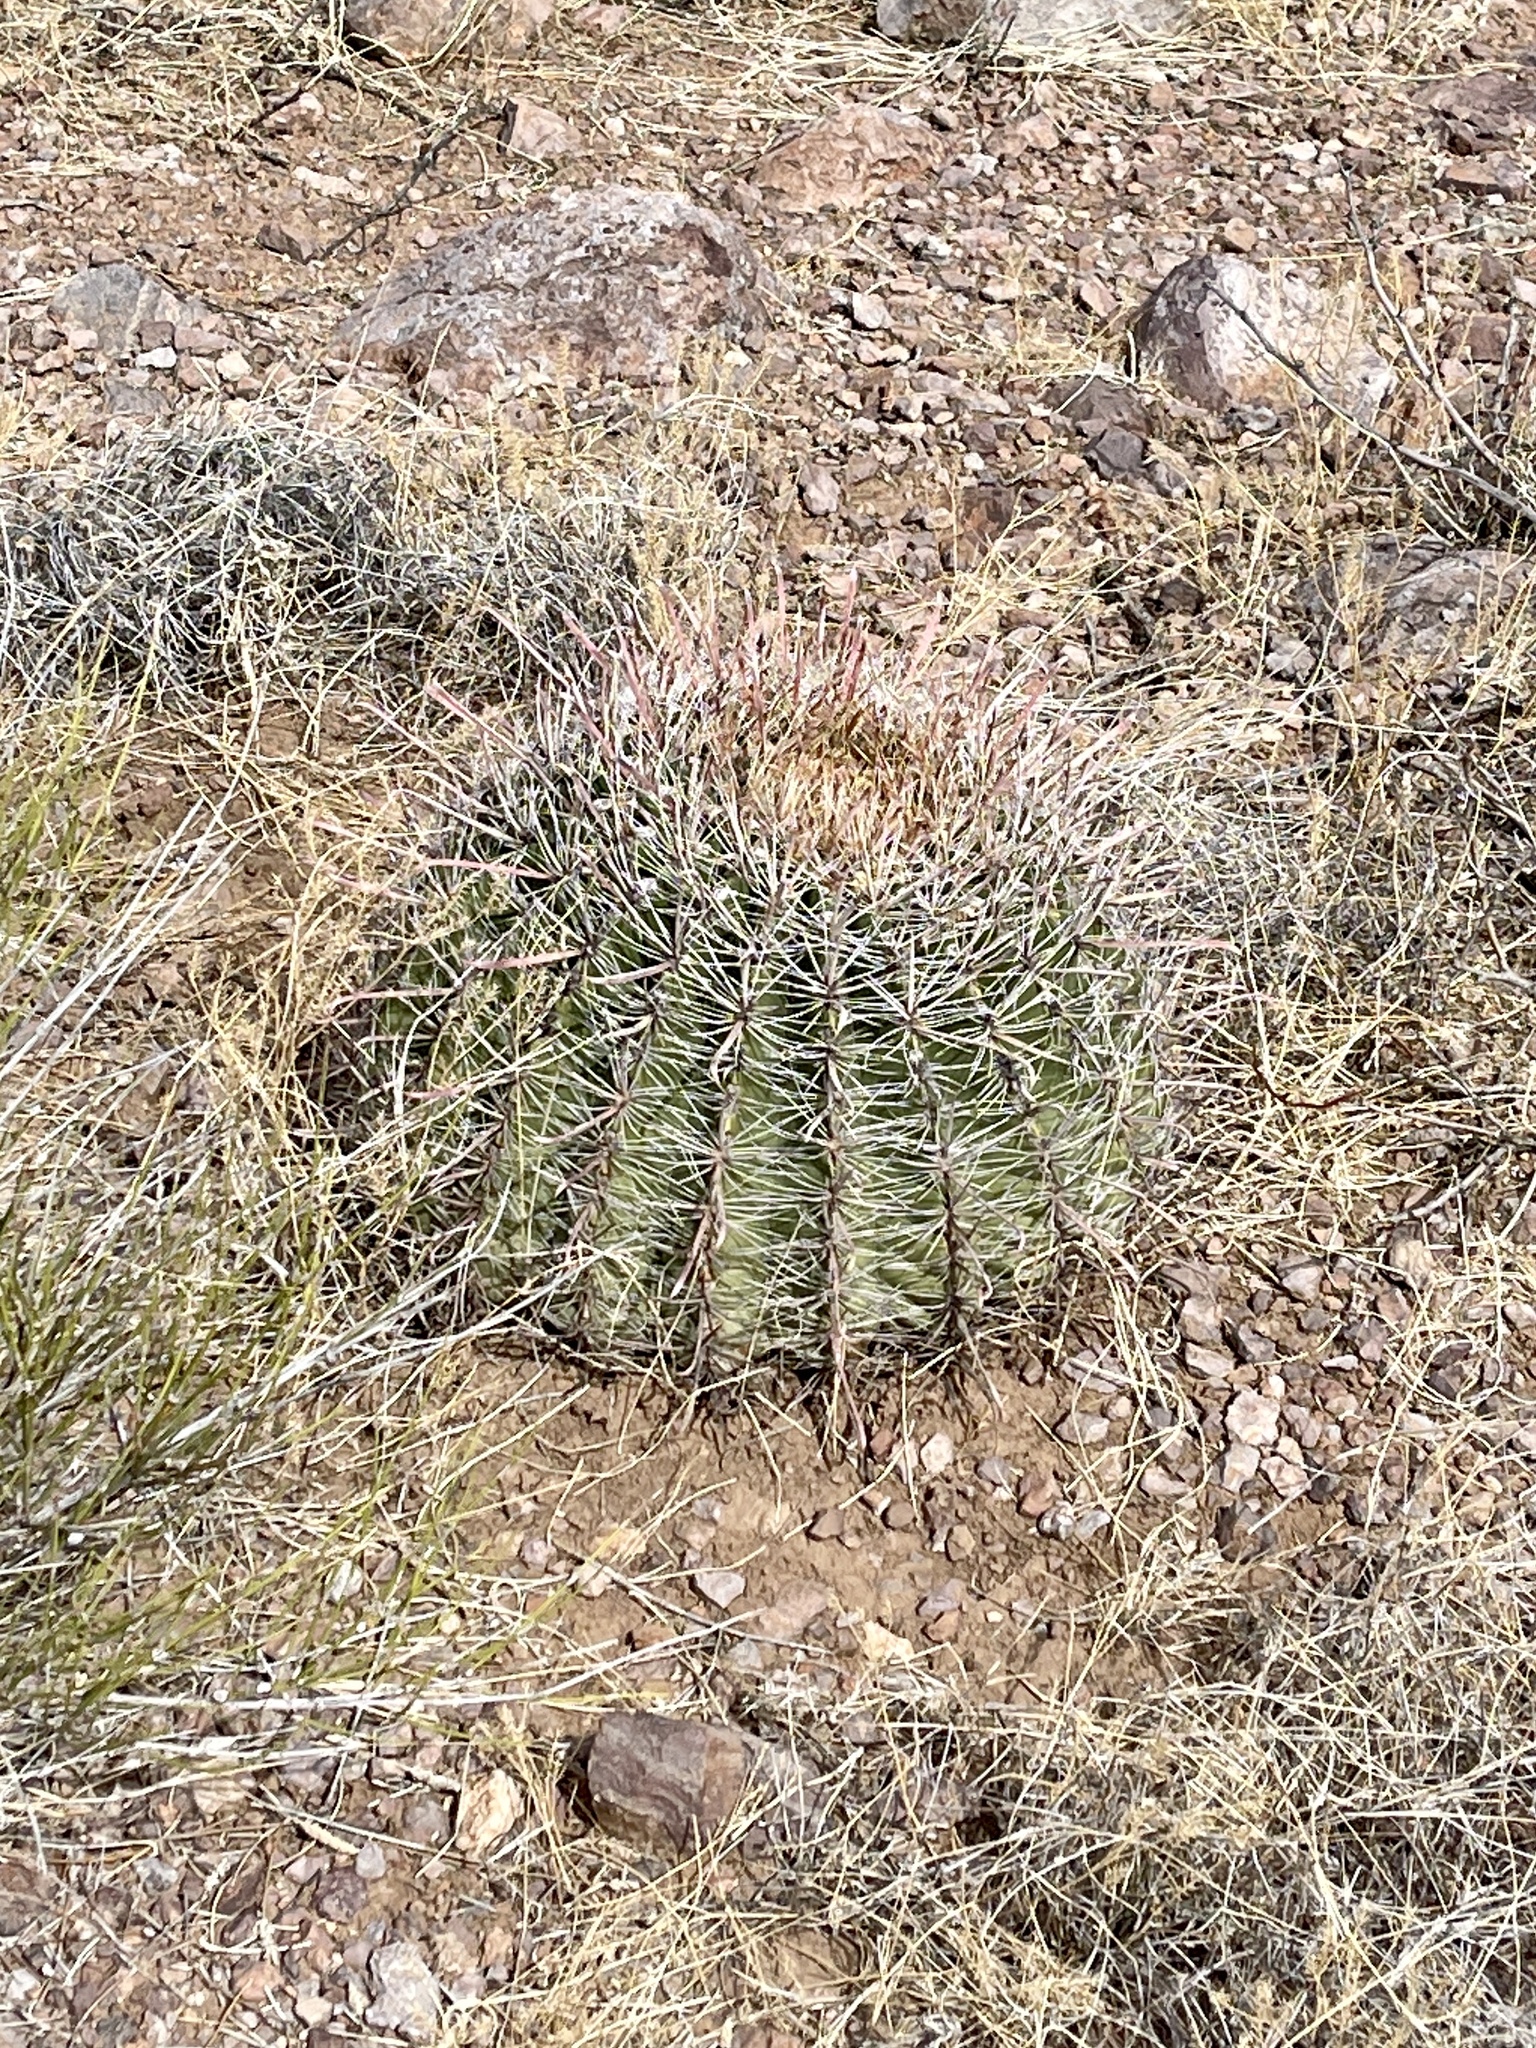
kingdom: Plantae
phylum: Tracheophyta
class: Magnoliopsida
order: Caryophyllales
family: Cactaceae
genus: Ferocactus
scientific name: Ferocactus wislizeni
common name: Candy barrel cactus
